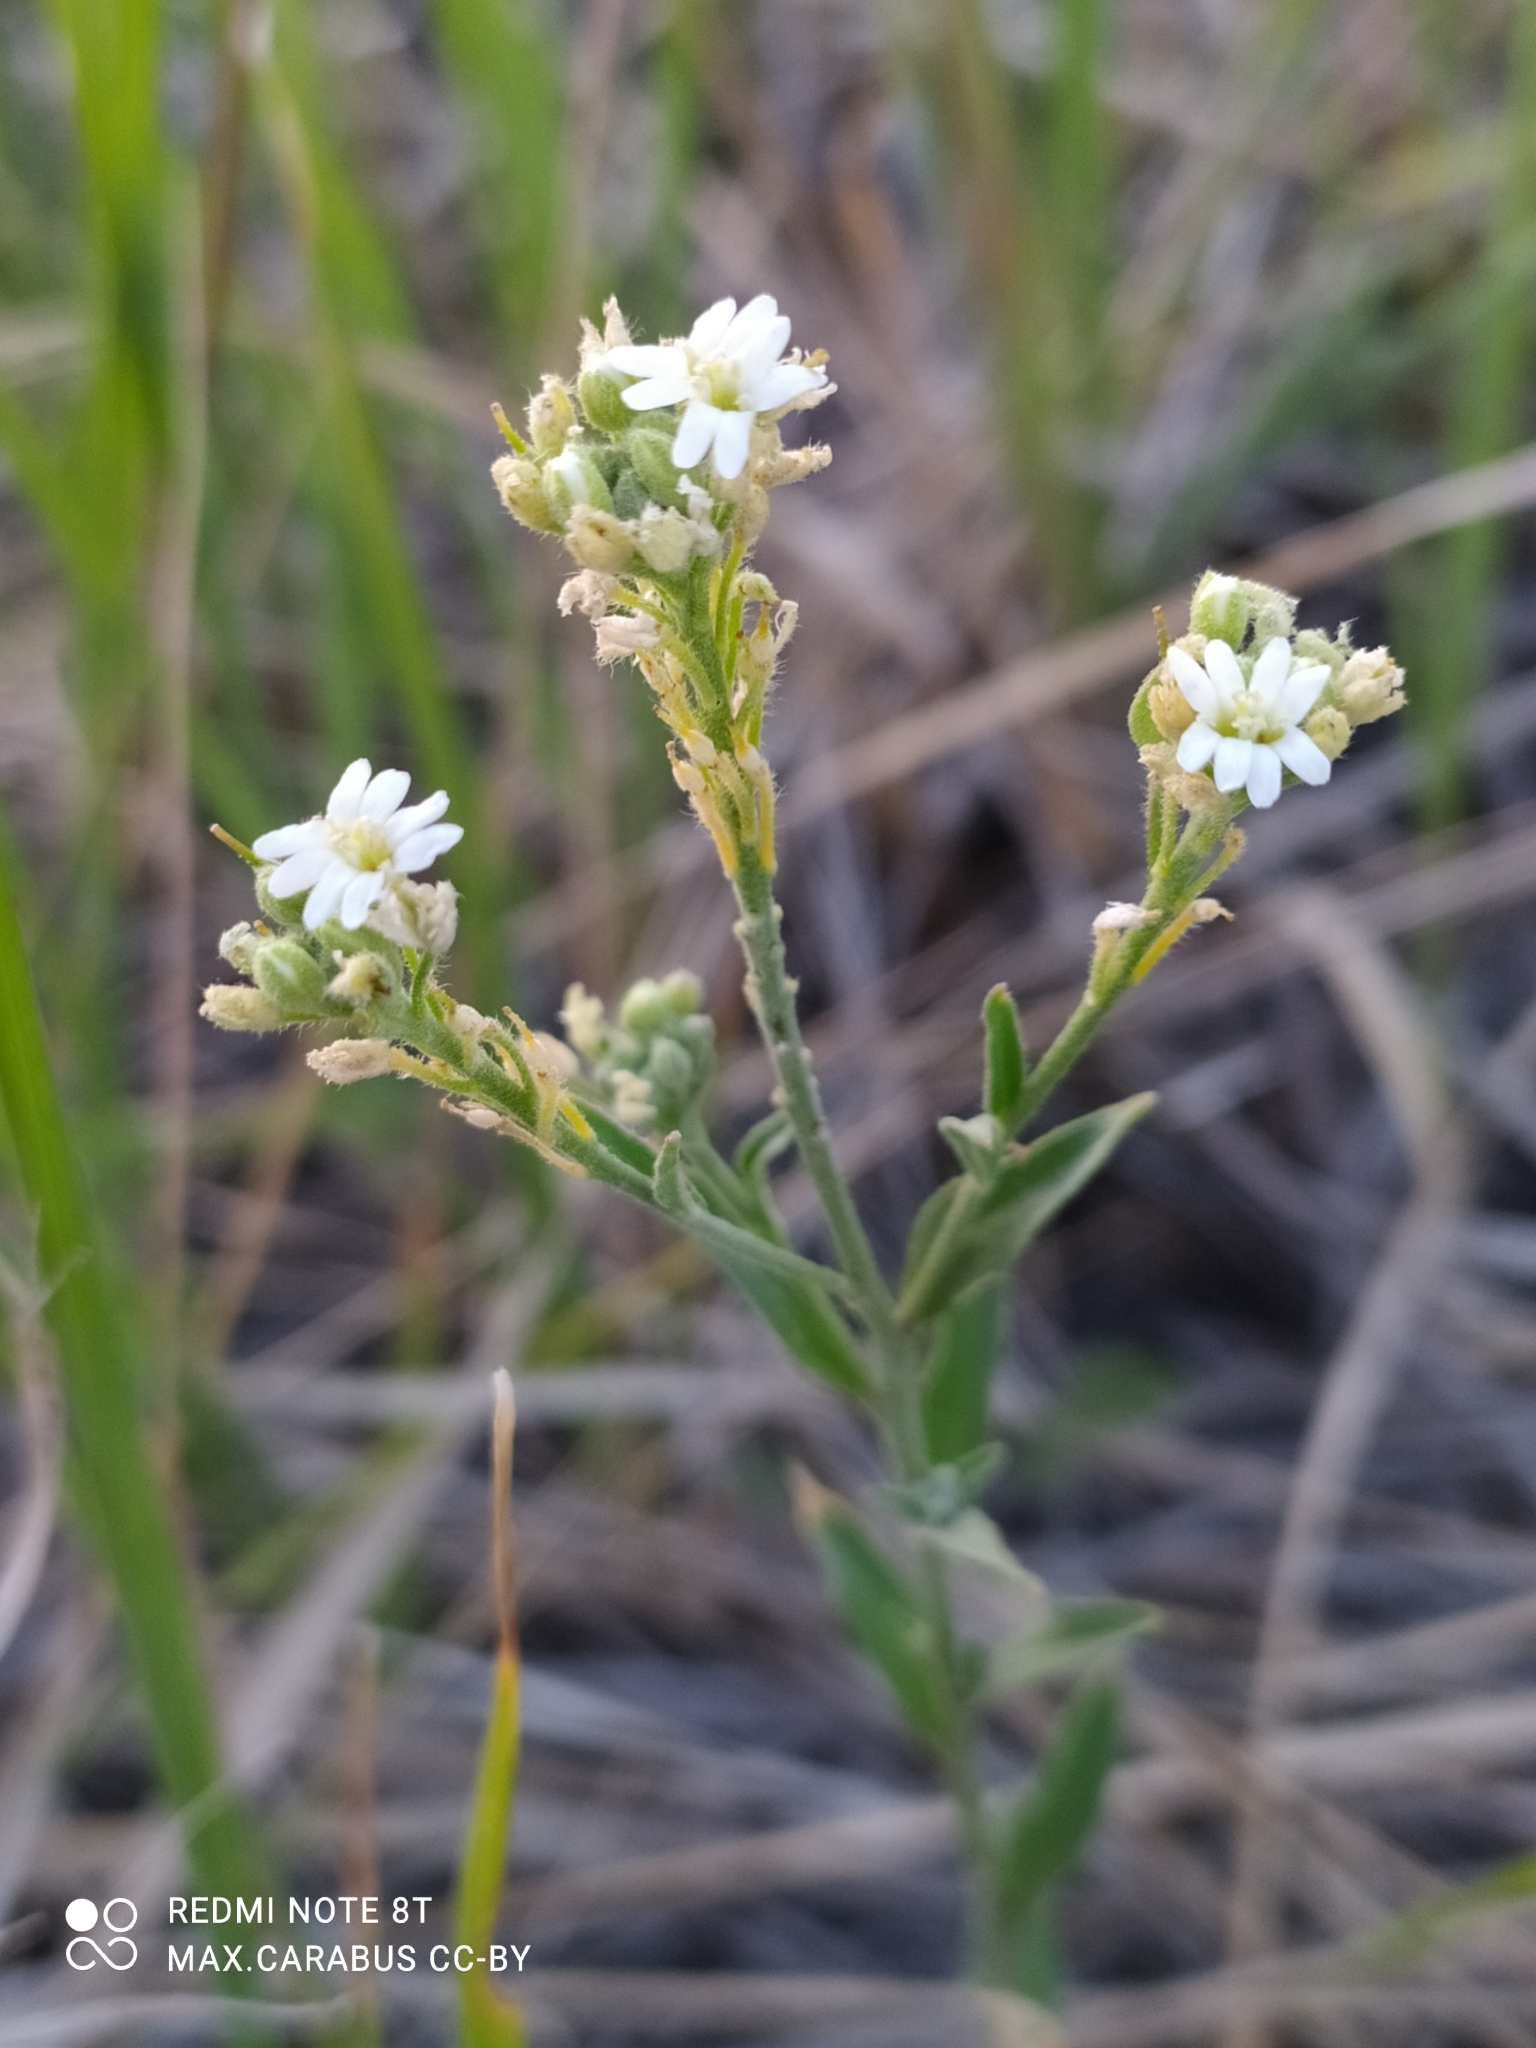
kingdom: Plantae
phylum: Tracheophyta
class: Magnoliopsida
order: Brassicales
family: Brassicaceae
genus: Berteroa
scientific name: Berteroa incana
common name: Hoary alison
